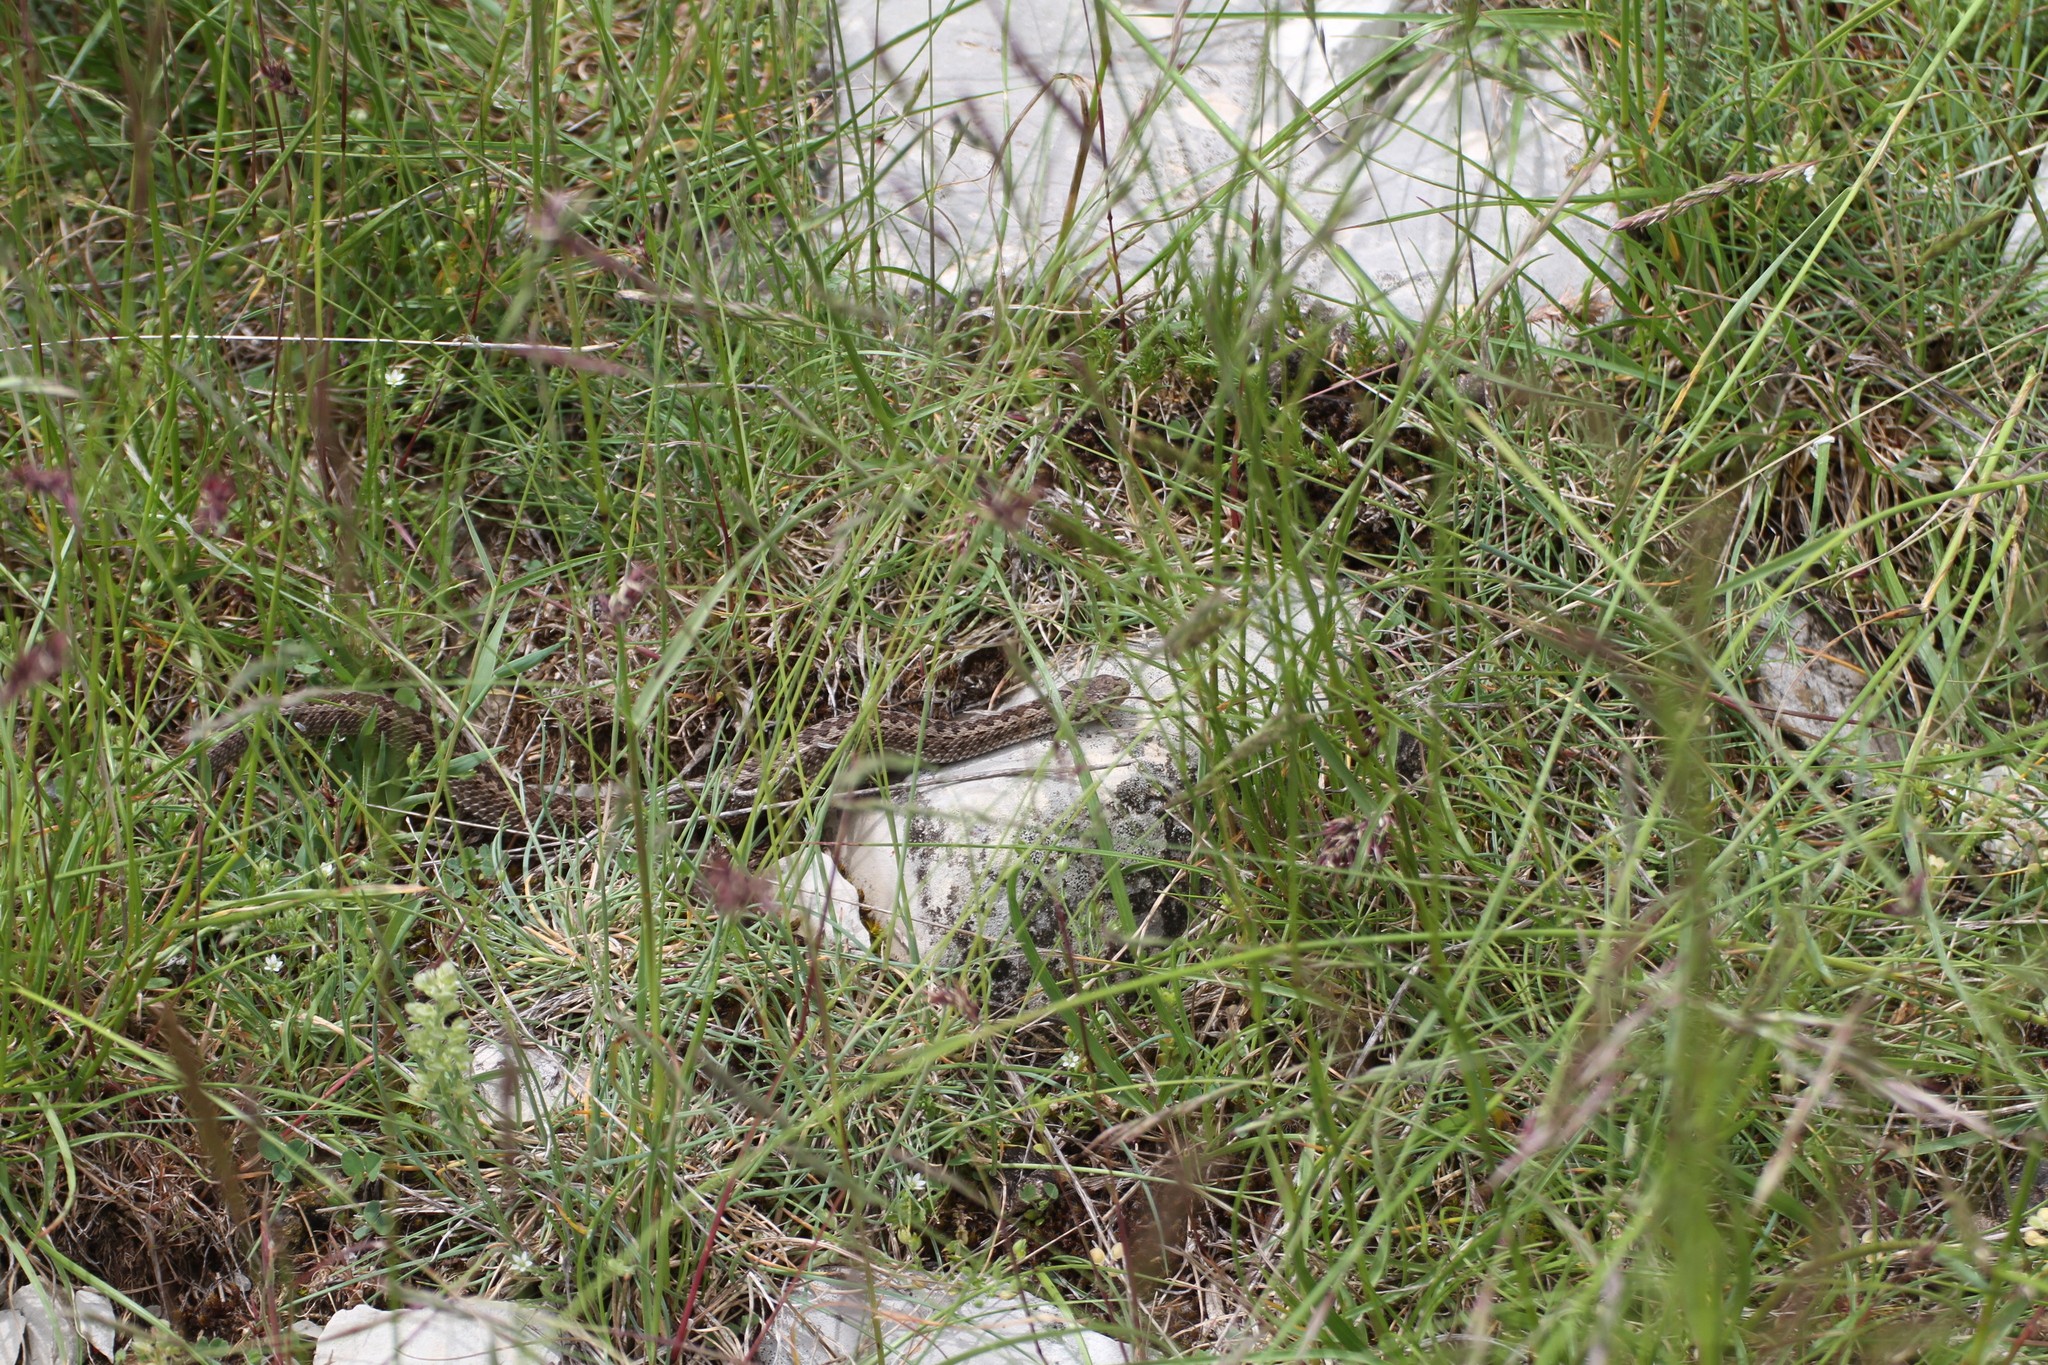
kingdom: Animalia
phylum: Chordata
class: Squamata
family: Viperidae
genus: Vipera
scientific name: Vipera ursinii
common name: Meadow viper
